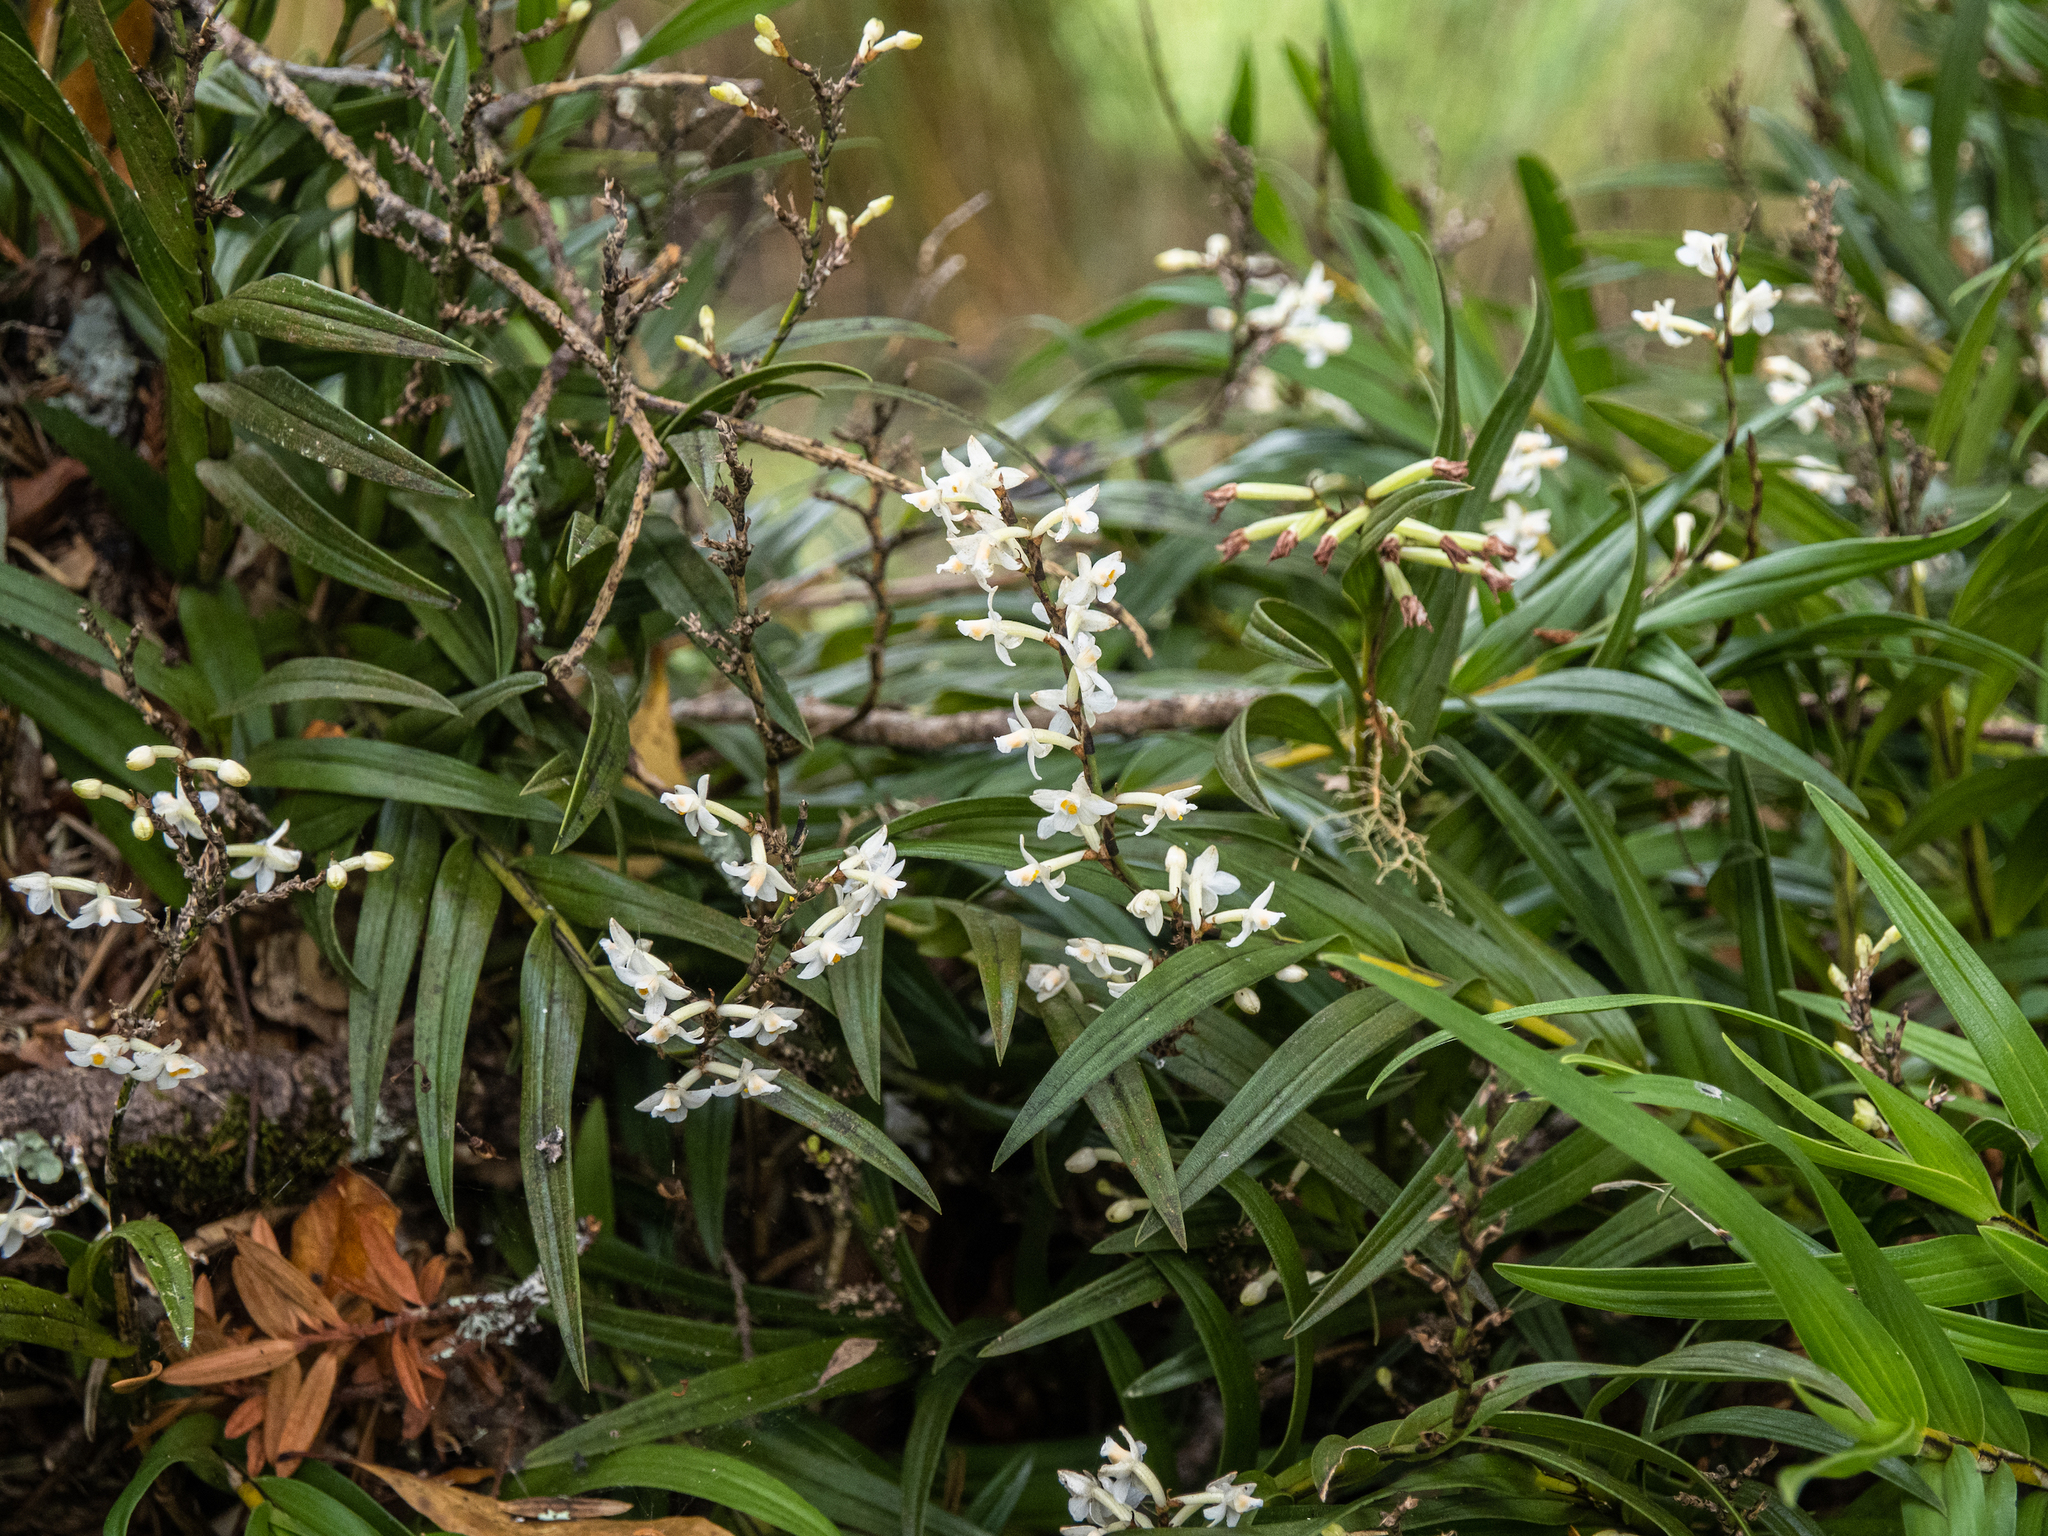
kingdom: Plantae
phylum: Tracheophyta
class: Liliopsida
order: Asparagales
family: Orchidaceae
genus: Earina
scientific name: Earina autumnalis
